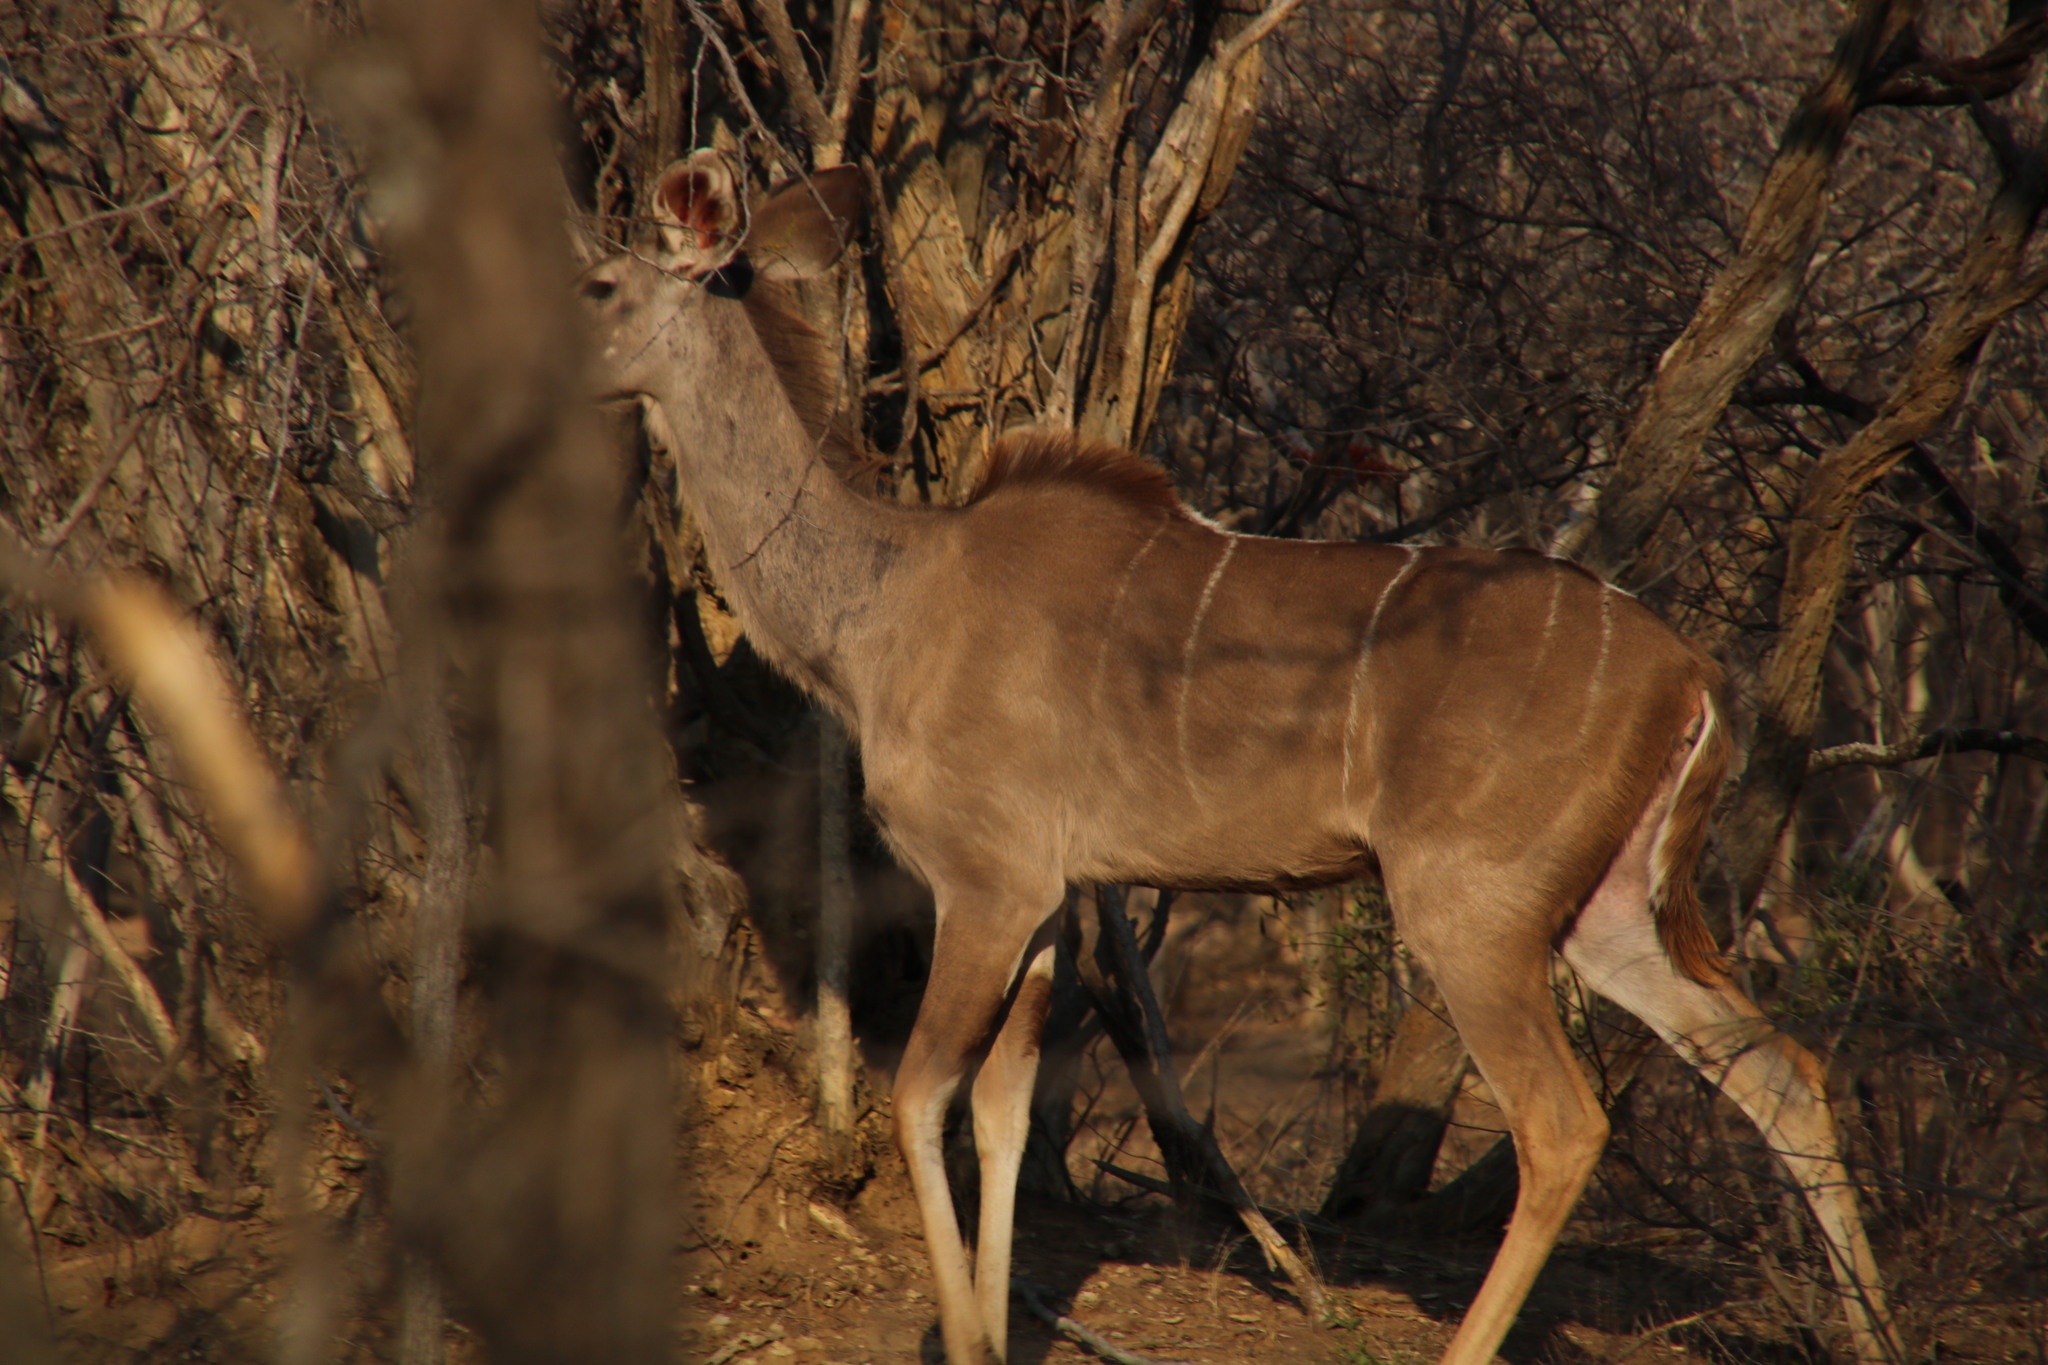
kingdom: Animalia
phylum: Chordata
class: Mammalia
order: Artiodactyla
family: Bovidae
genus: Tragelaphus
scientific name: Tragelaphus strepsiceros
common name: Greater kudu
